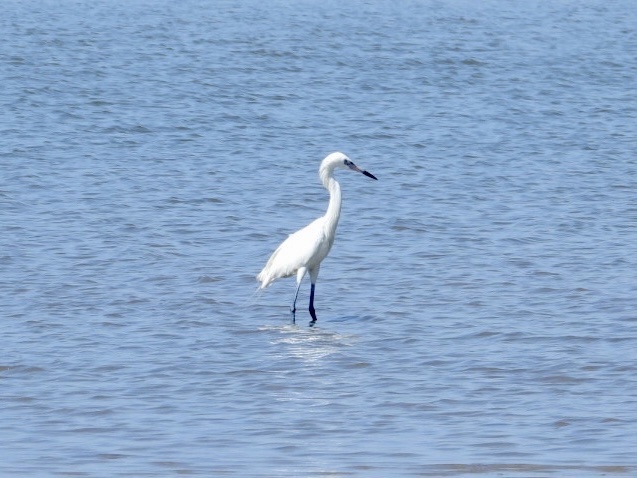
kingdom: Animalia
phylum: Chordata
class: Aves
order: Pelecaniformes
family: Ardeidae
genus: Egretta
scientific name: Egretta rufescens
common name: Reddish egret
